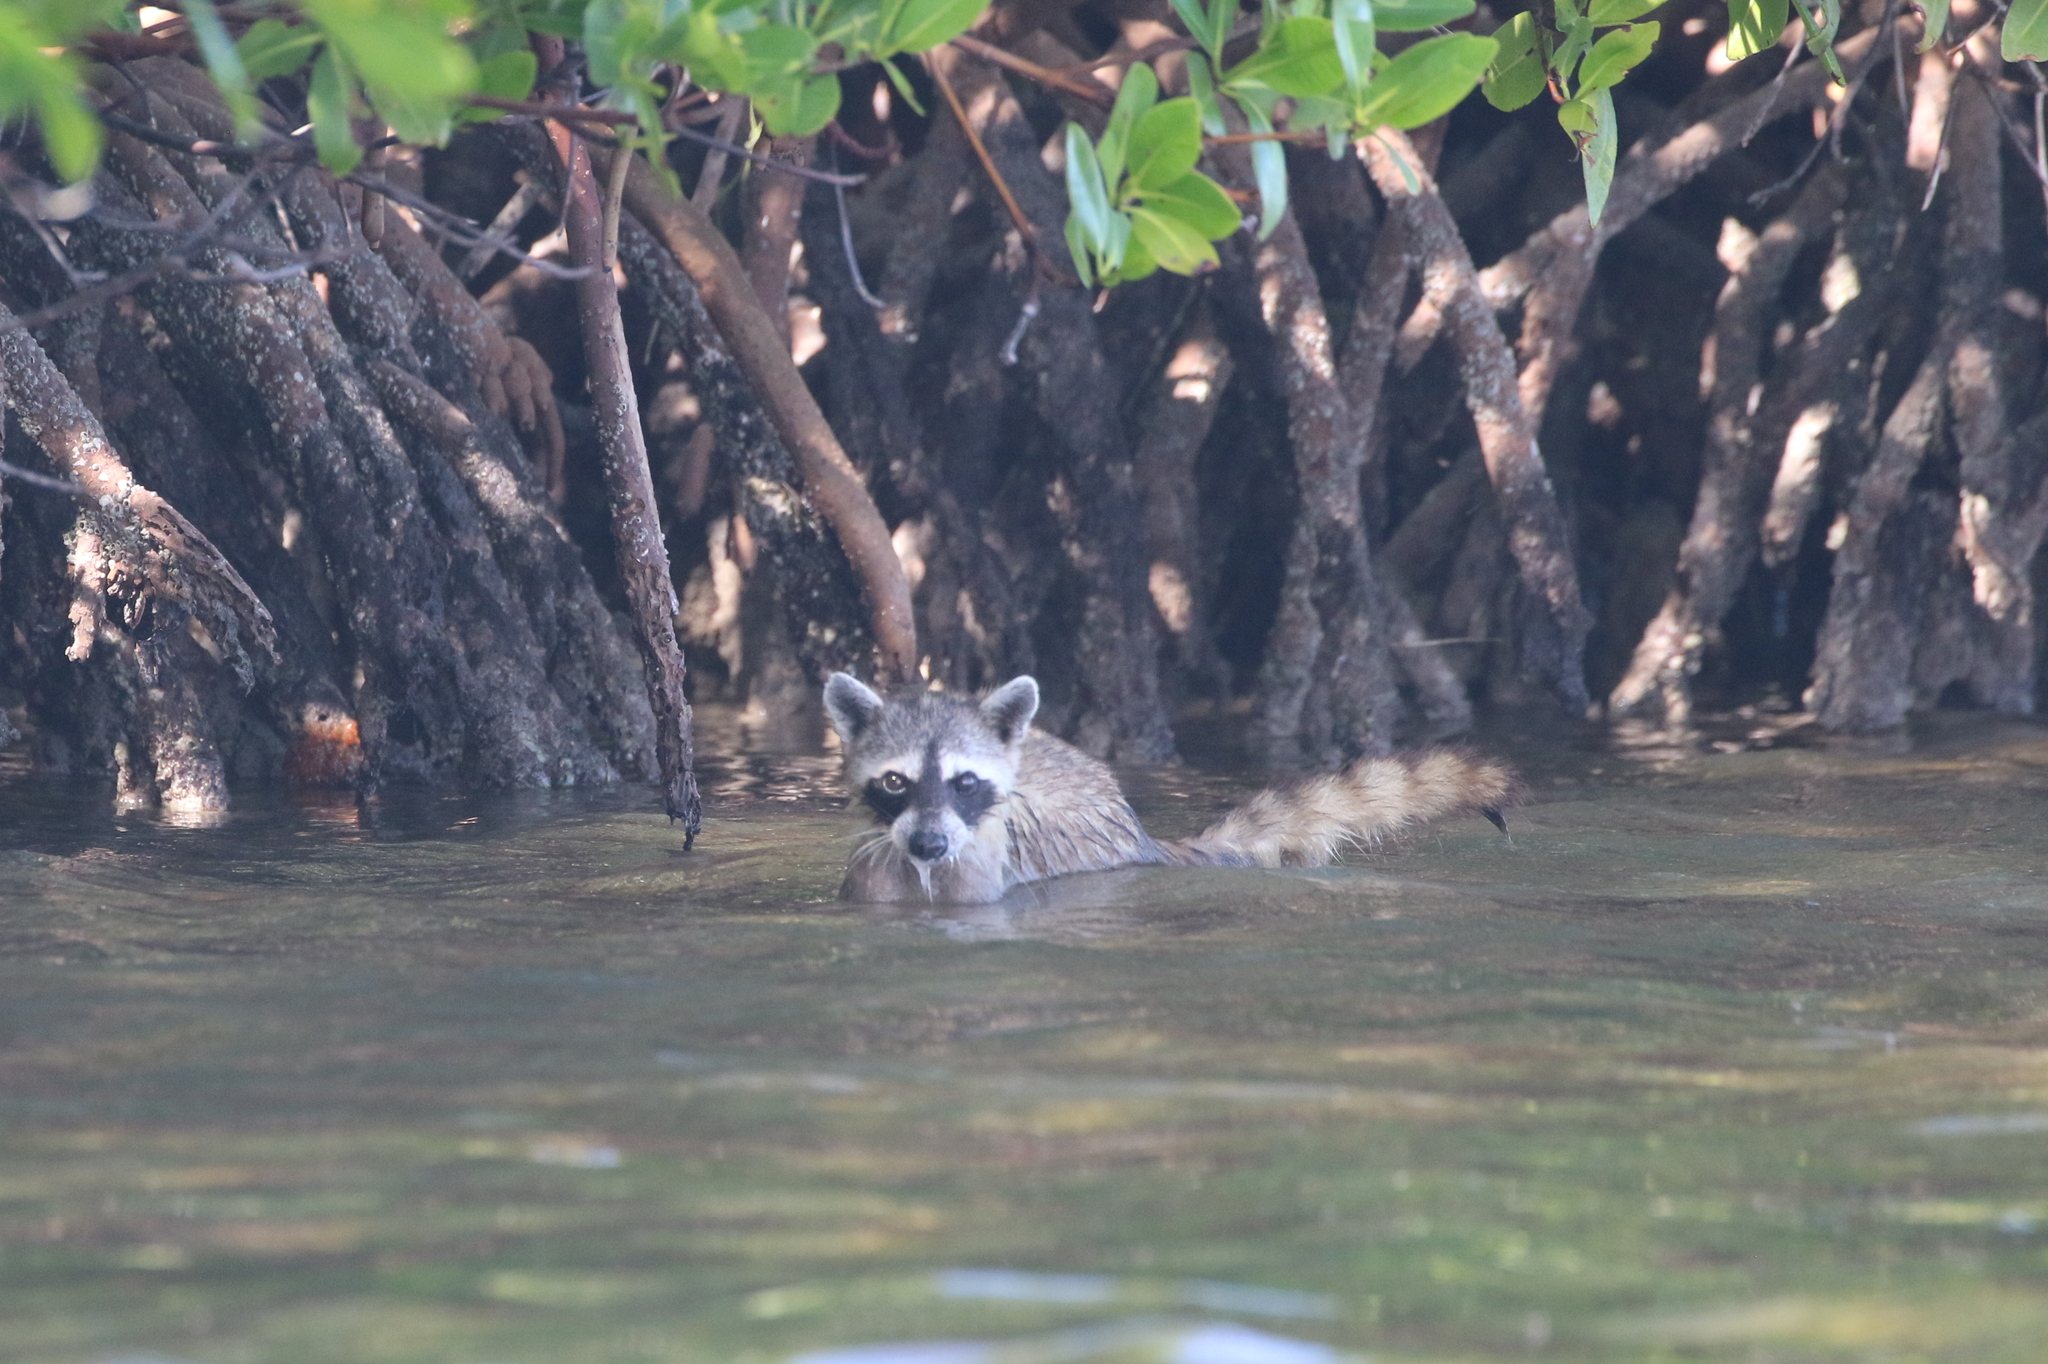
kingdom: Animalia
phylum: Chordata
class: Mammalia
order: Carnivora
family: Procyonidae
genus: Procyon
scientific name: Procyon lotor
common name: Raccoon
